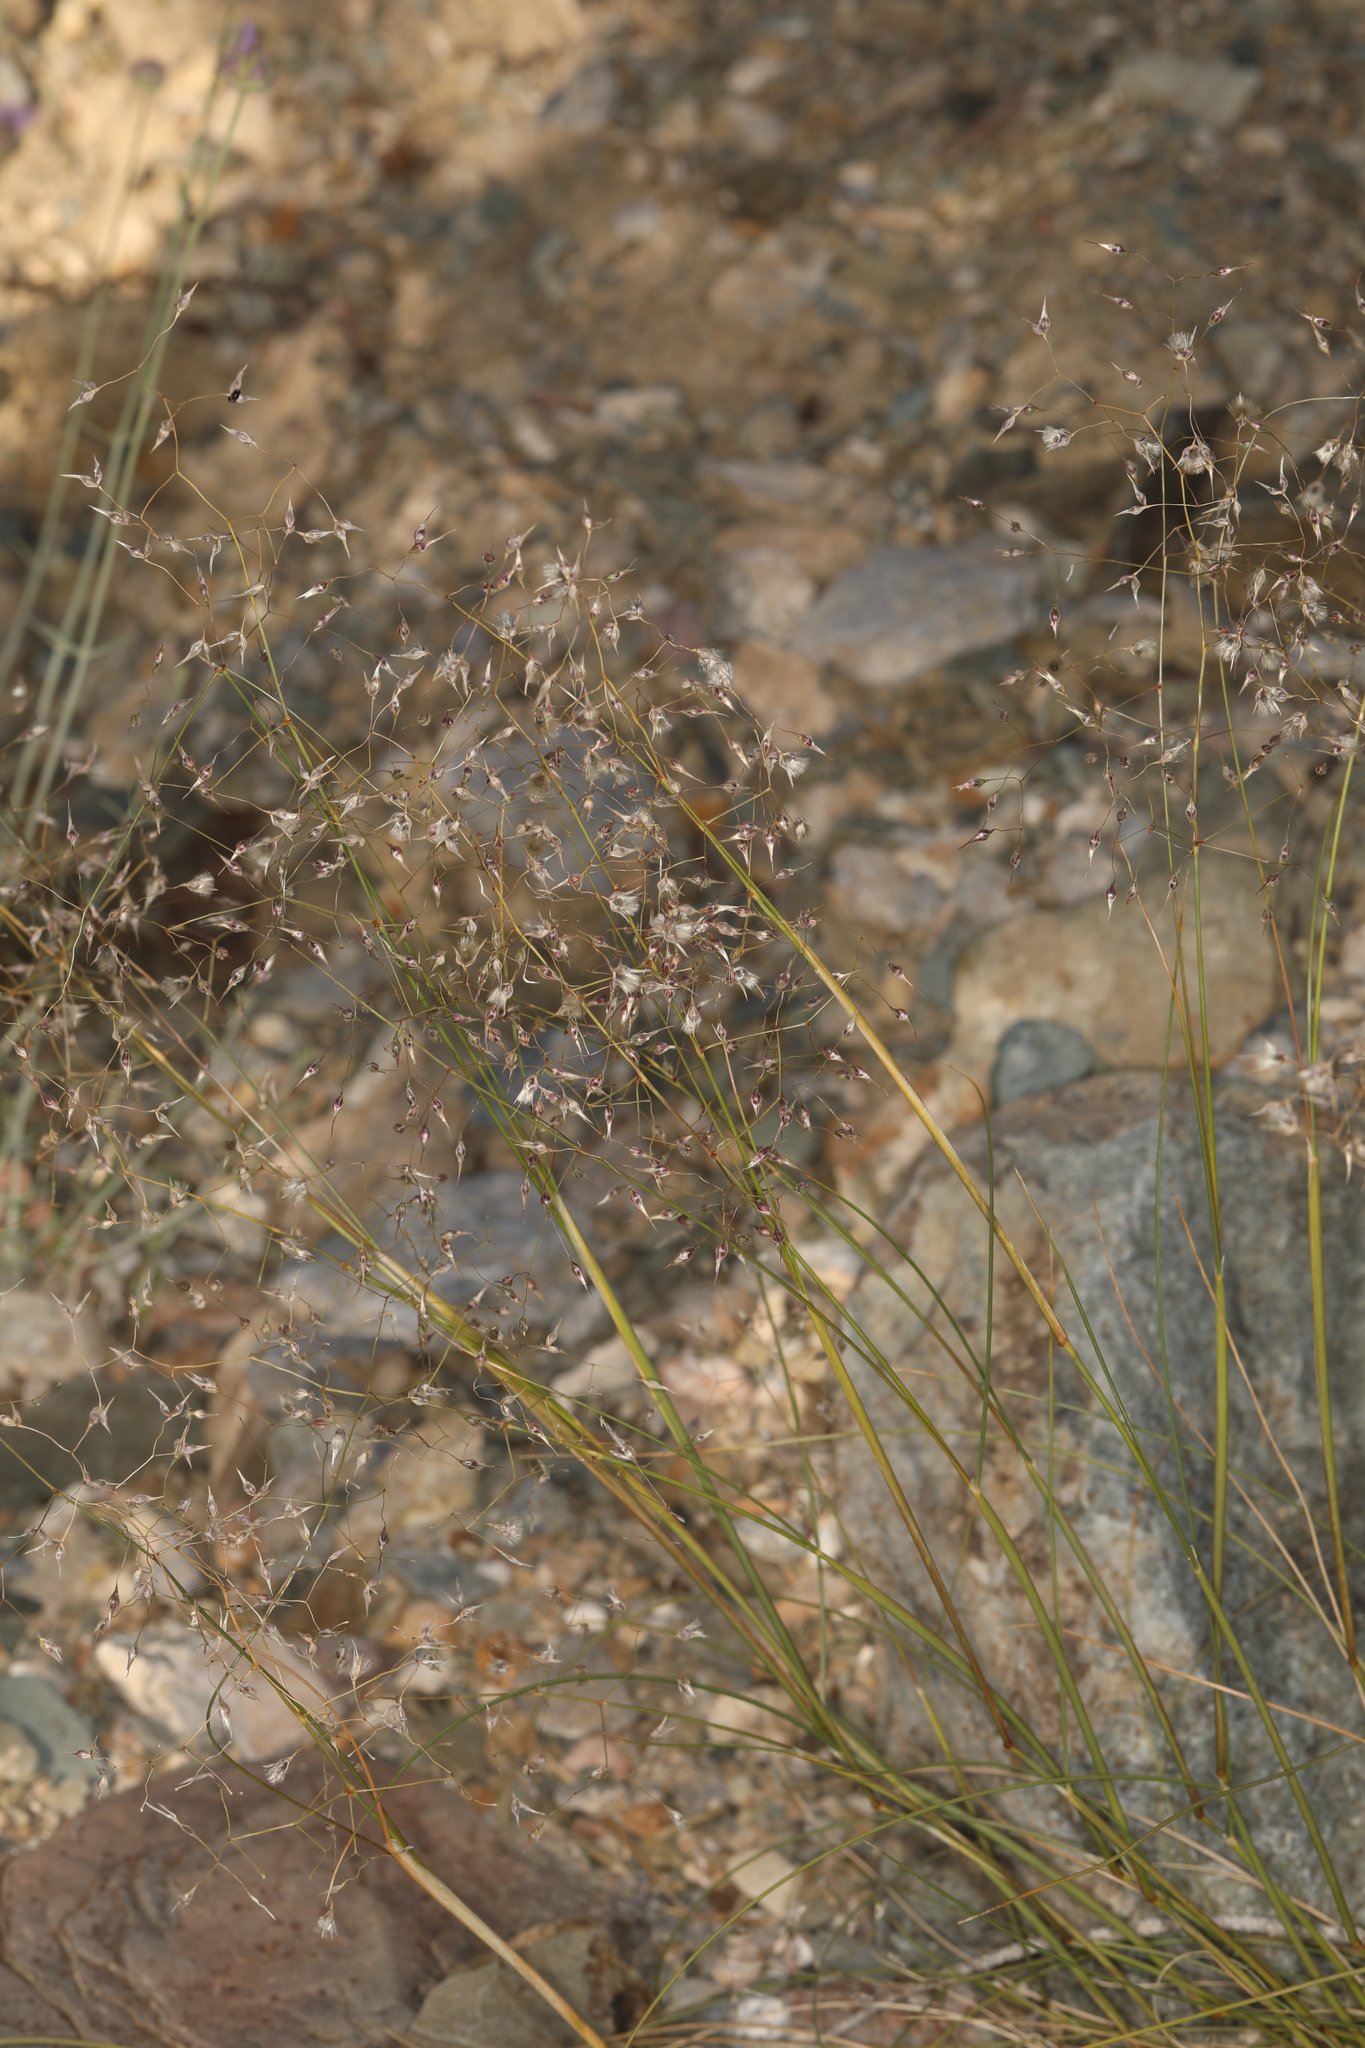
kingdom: Plantae
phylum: Tracheophyta
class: Liliopsida
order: Poales
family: Poaceae
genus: Eriocoma
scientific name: Eriocoma hymenoides
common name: Indian mountain ricegrass
